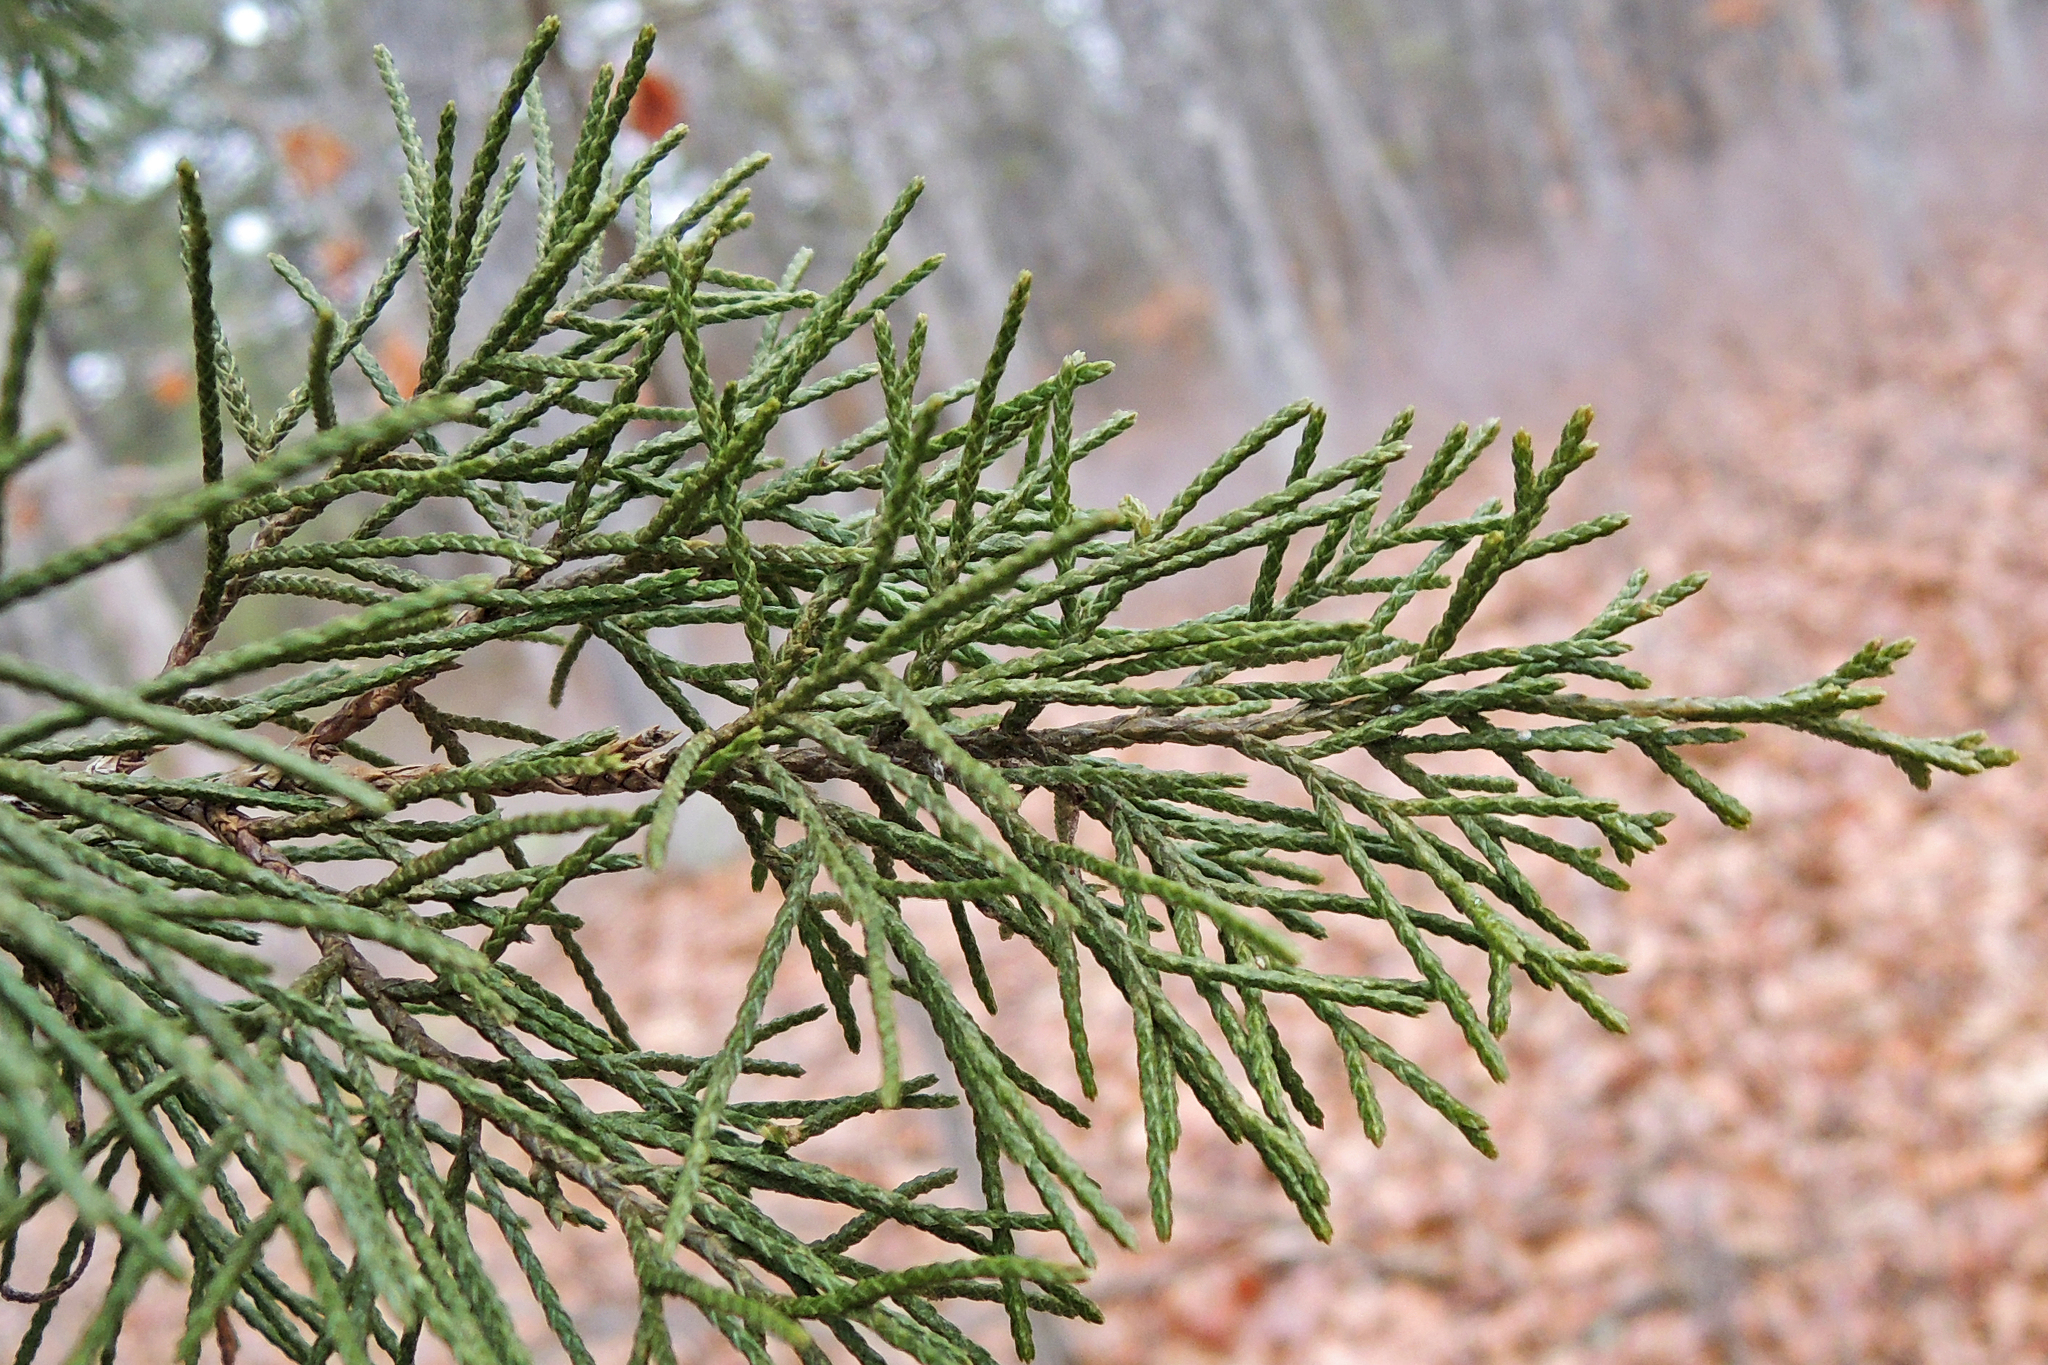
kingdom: Plantae
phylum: Tracheophyta
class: Pinopsida
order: Pinales
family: Cupressaceae
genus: Juniperus
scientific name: Juniperus virginiana
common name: Red juniper
